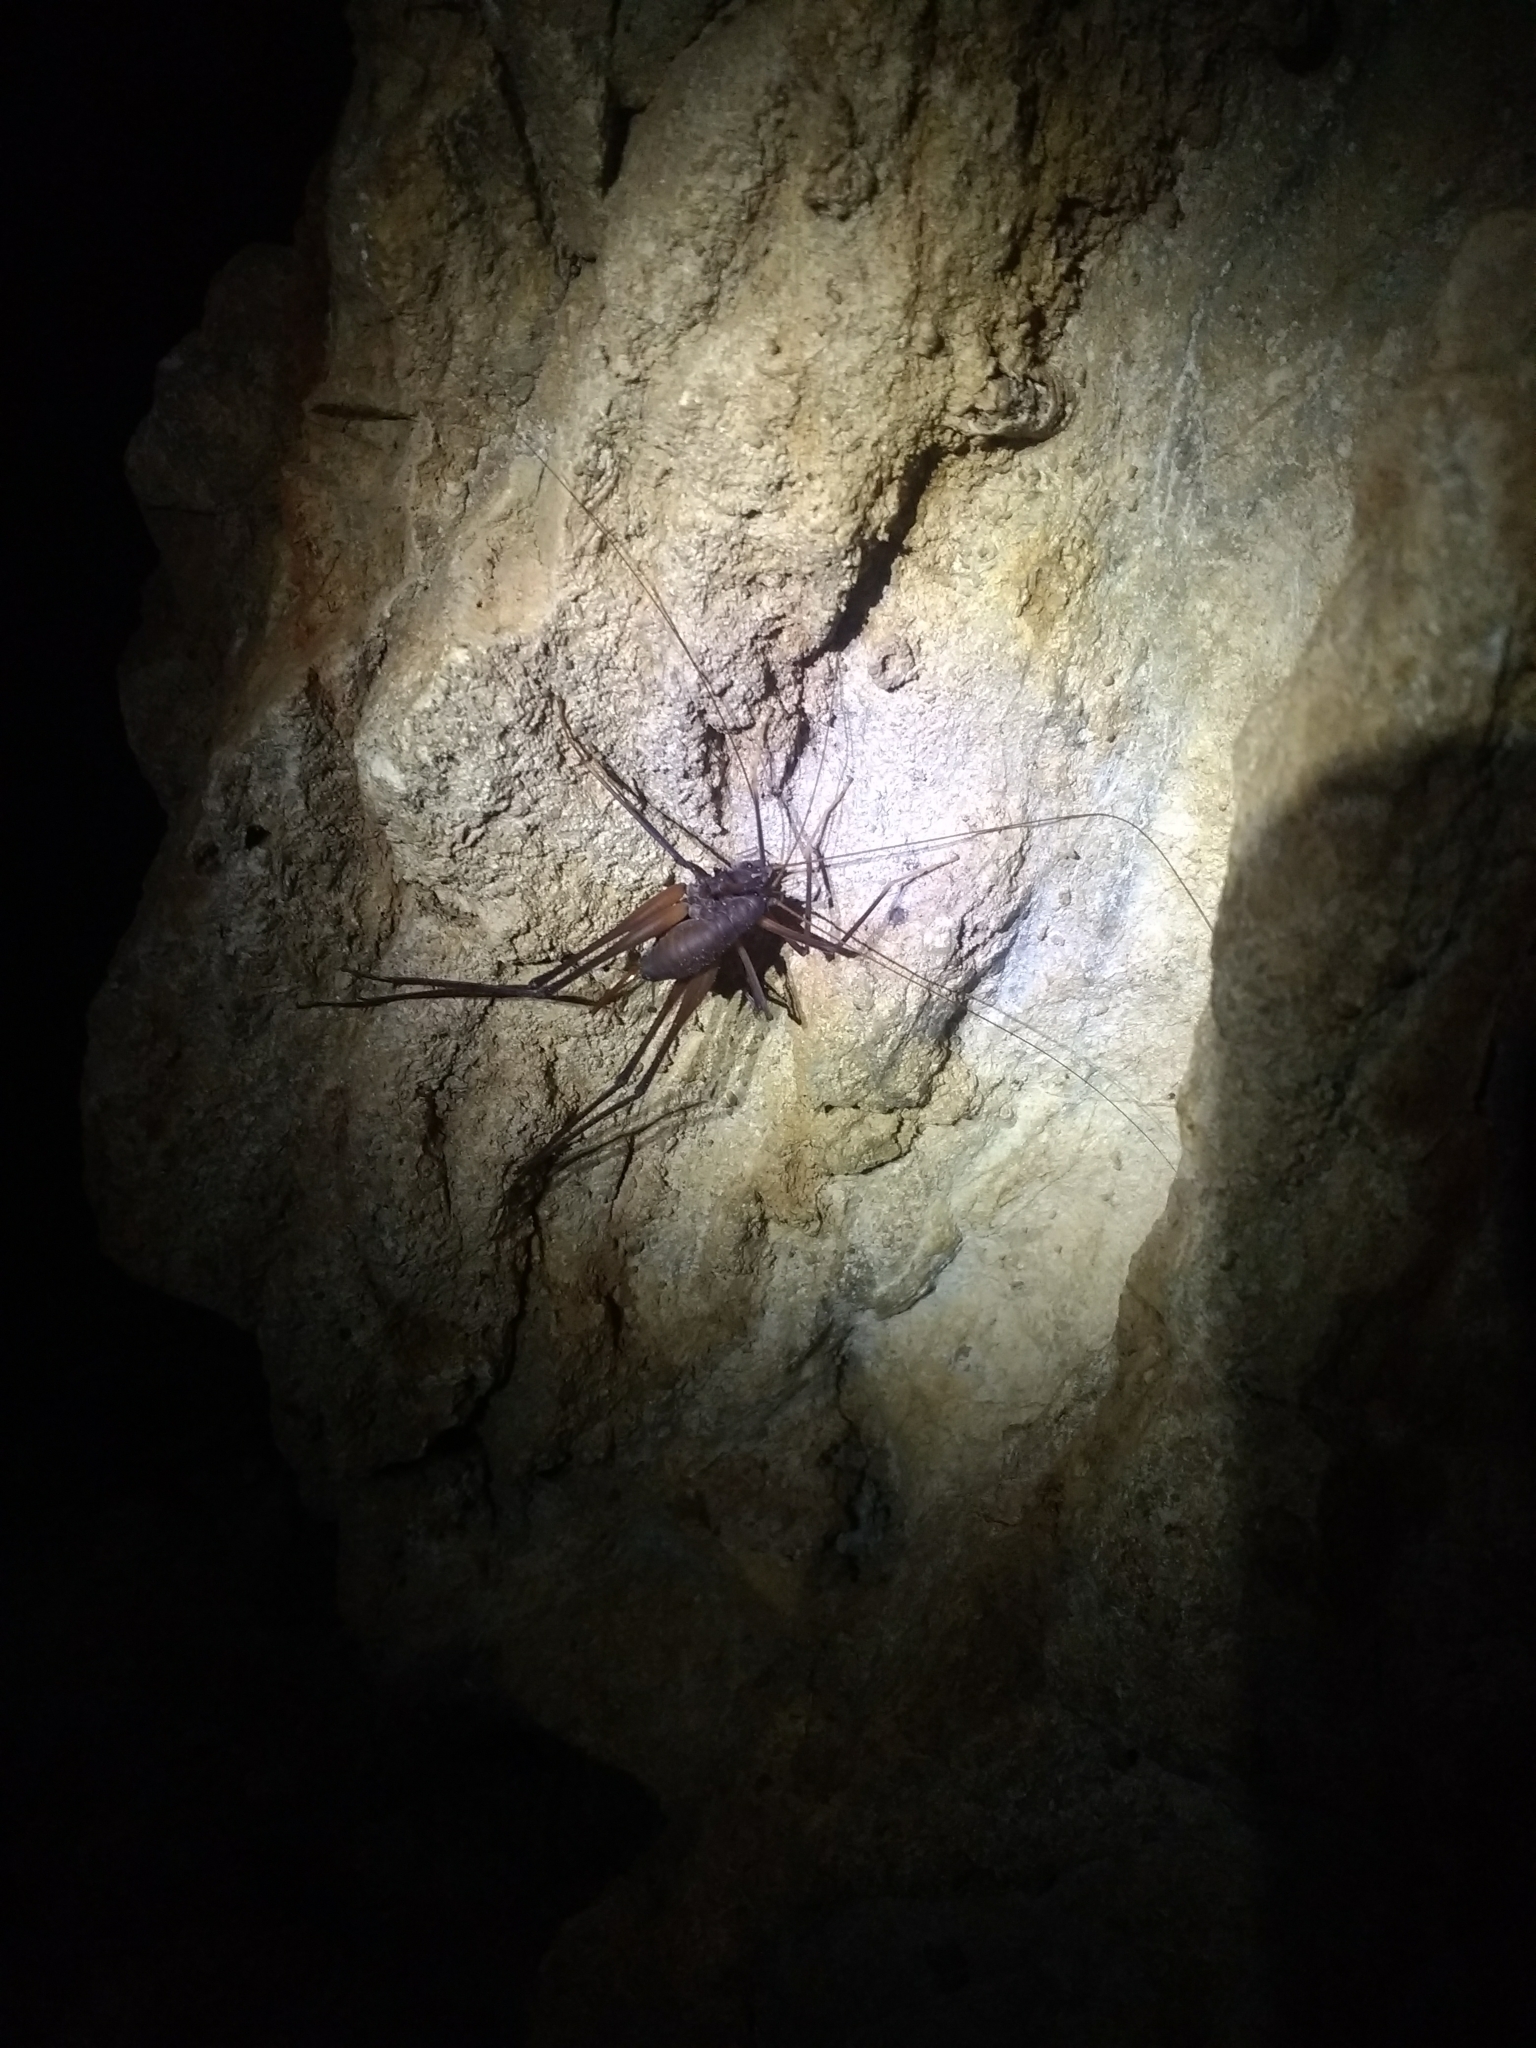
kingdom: Animalia
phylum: Arthropoda
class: Insecta
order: Orthoptera
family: Rhaphidophoridae
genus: Tropidischia
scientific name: Tropidischia xanthostoma
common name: Square-legged camel cricket
